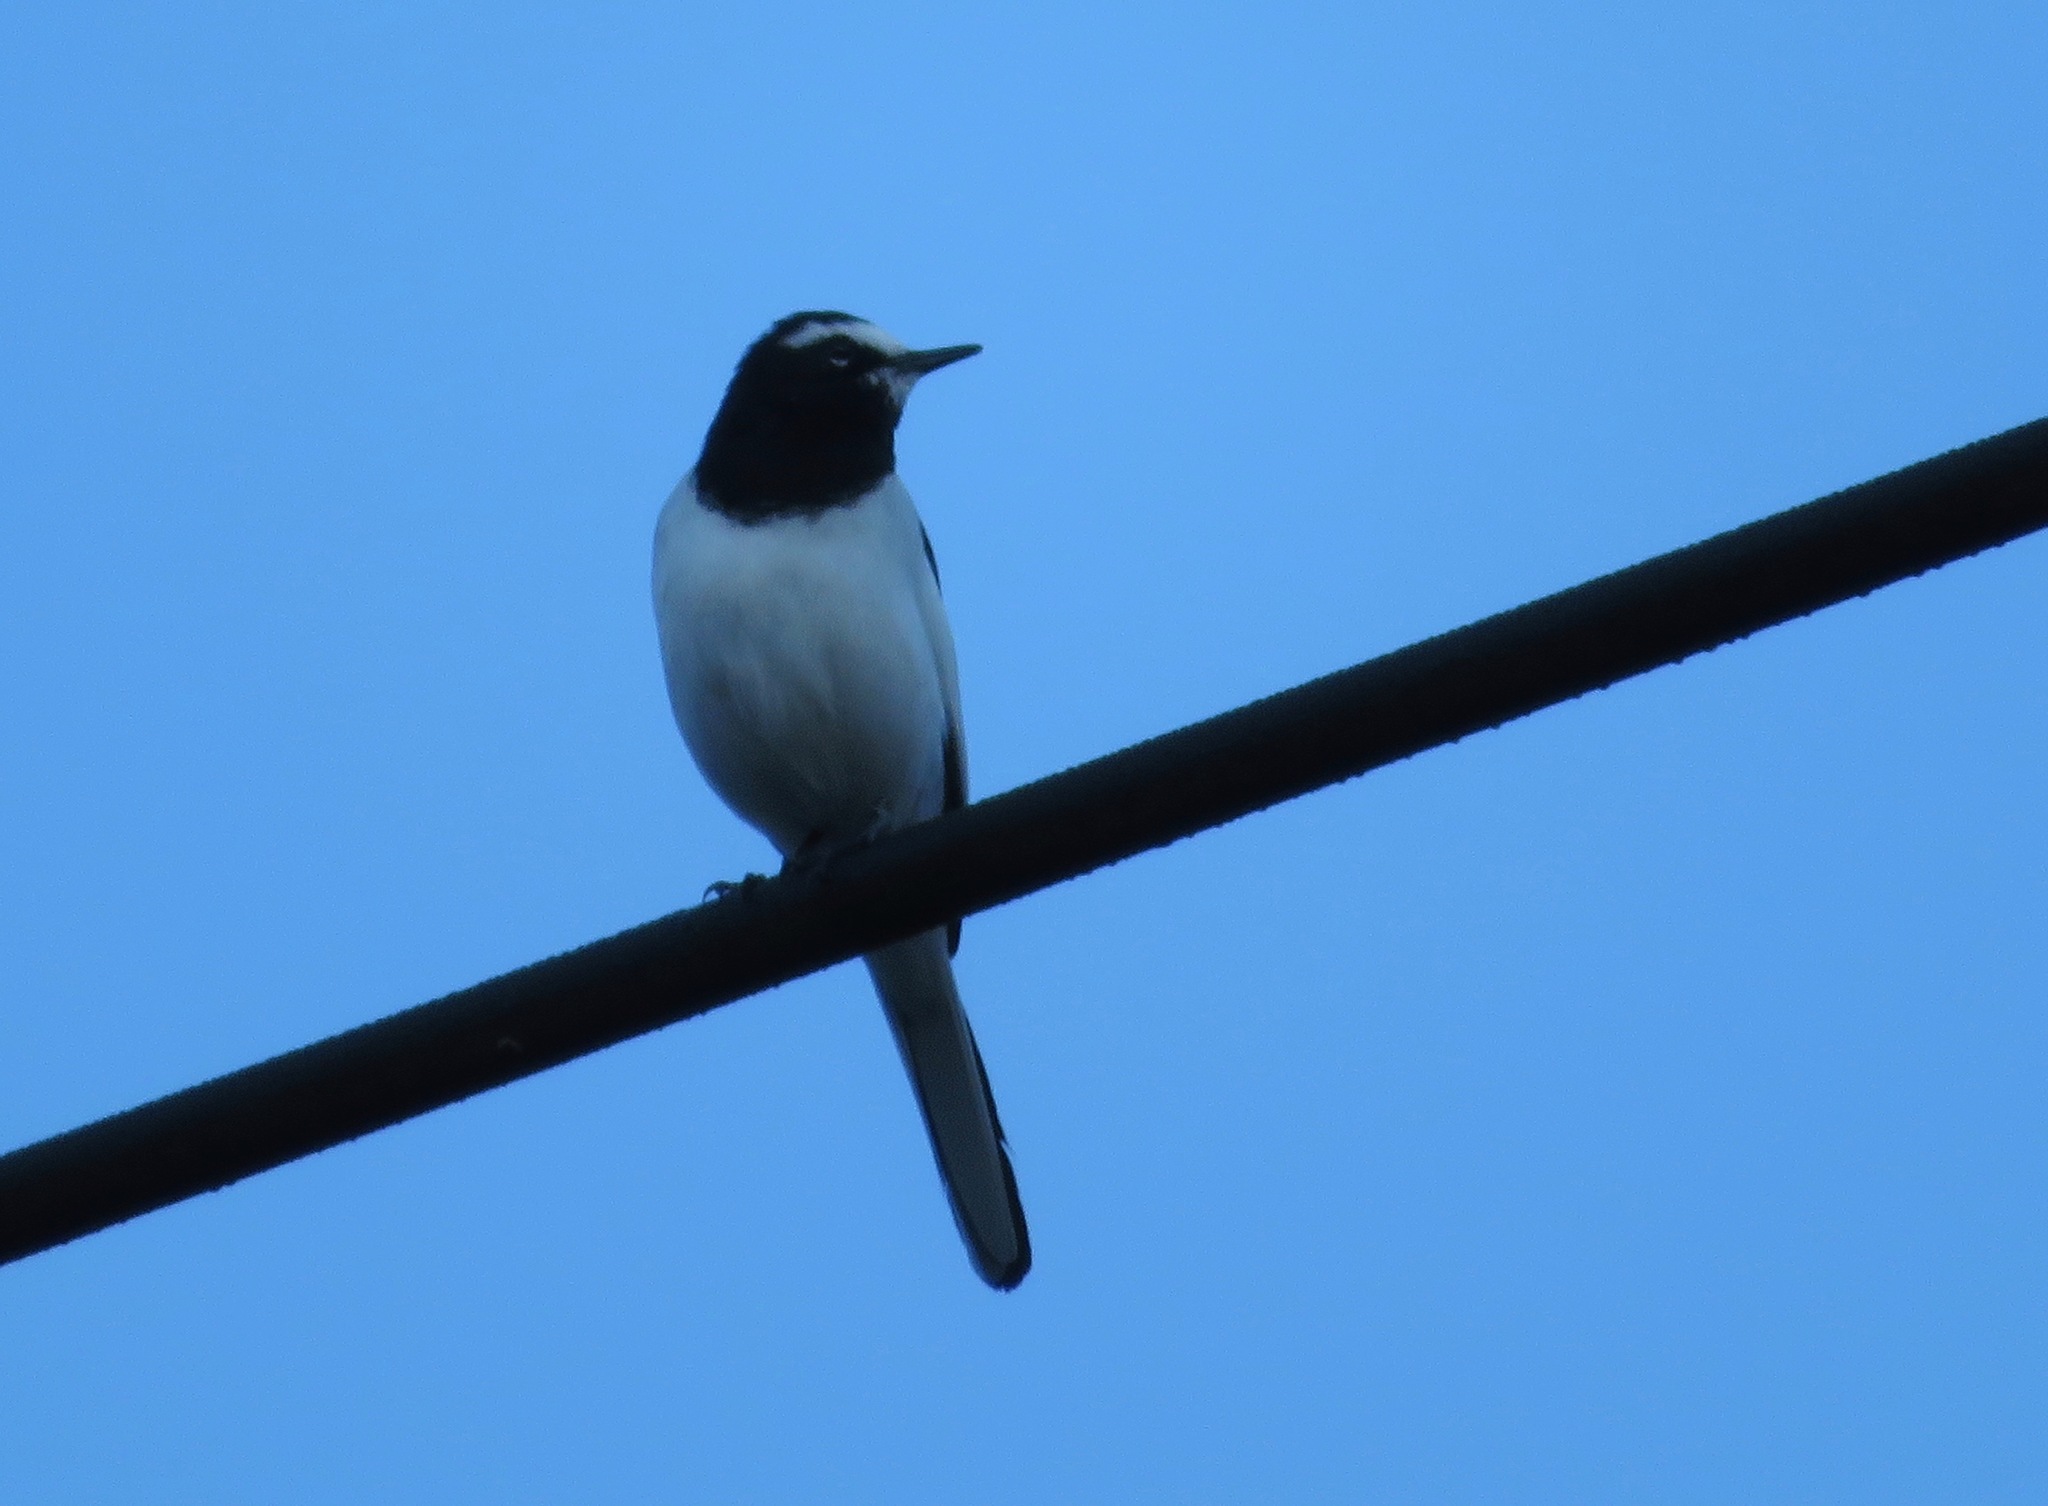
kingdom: Animalia
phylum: Chordata
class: Aves
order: Passeriformes
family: Motacillidae
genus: Motacilla
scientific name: Motacilla grandis
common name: Japanese wagtail
